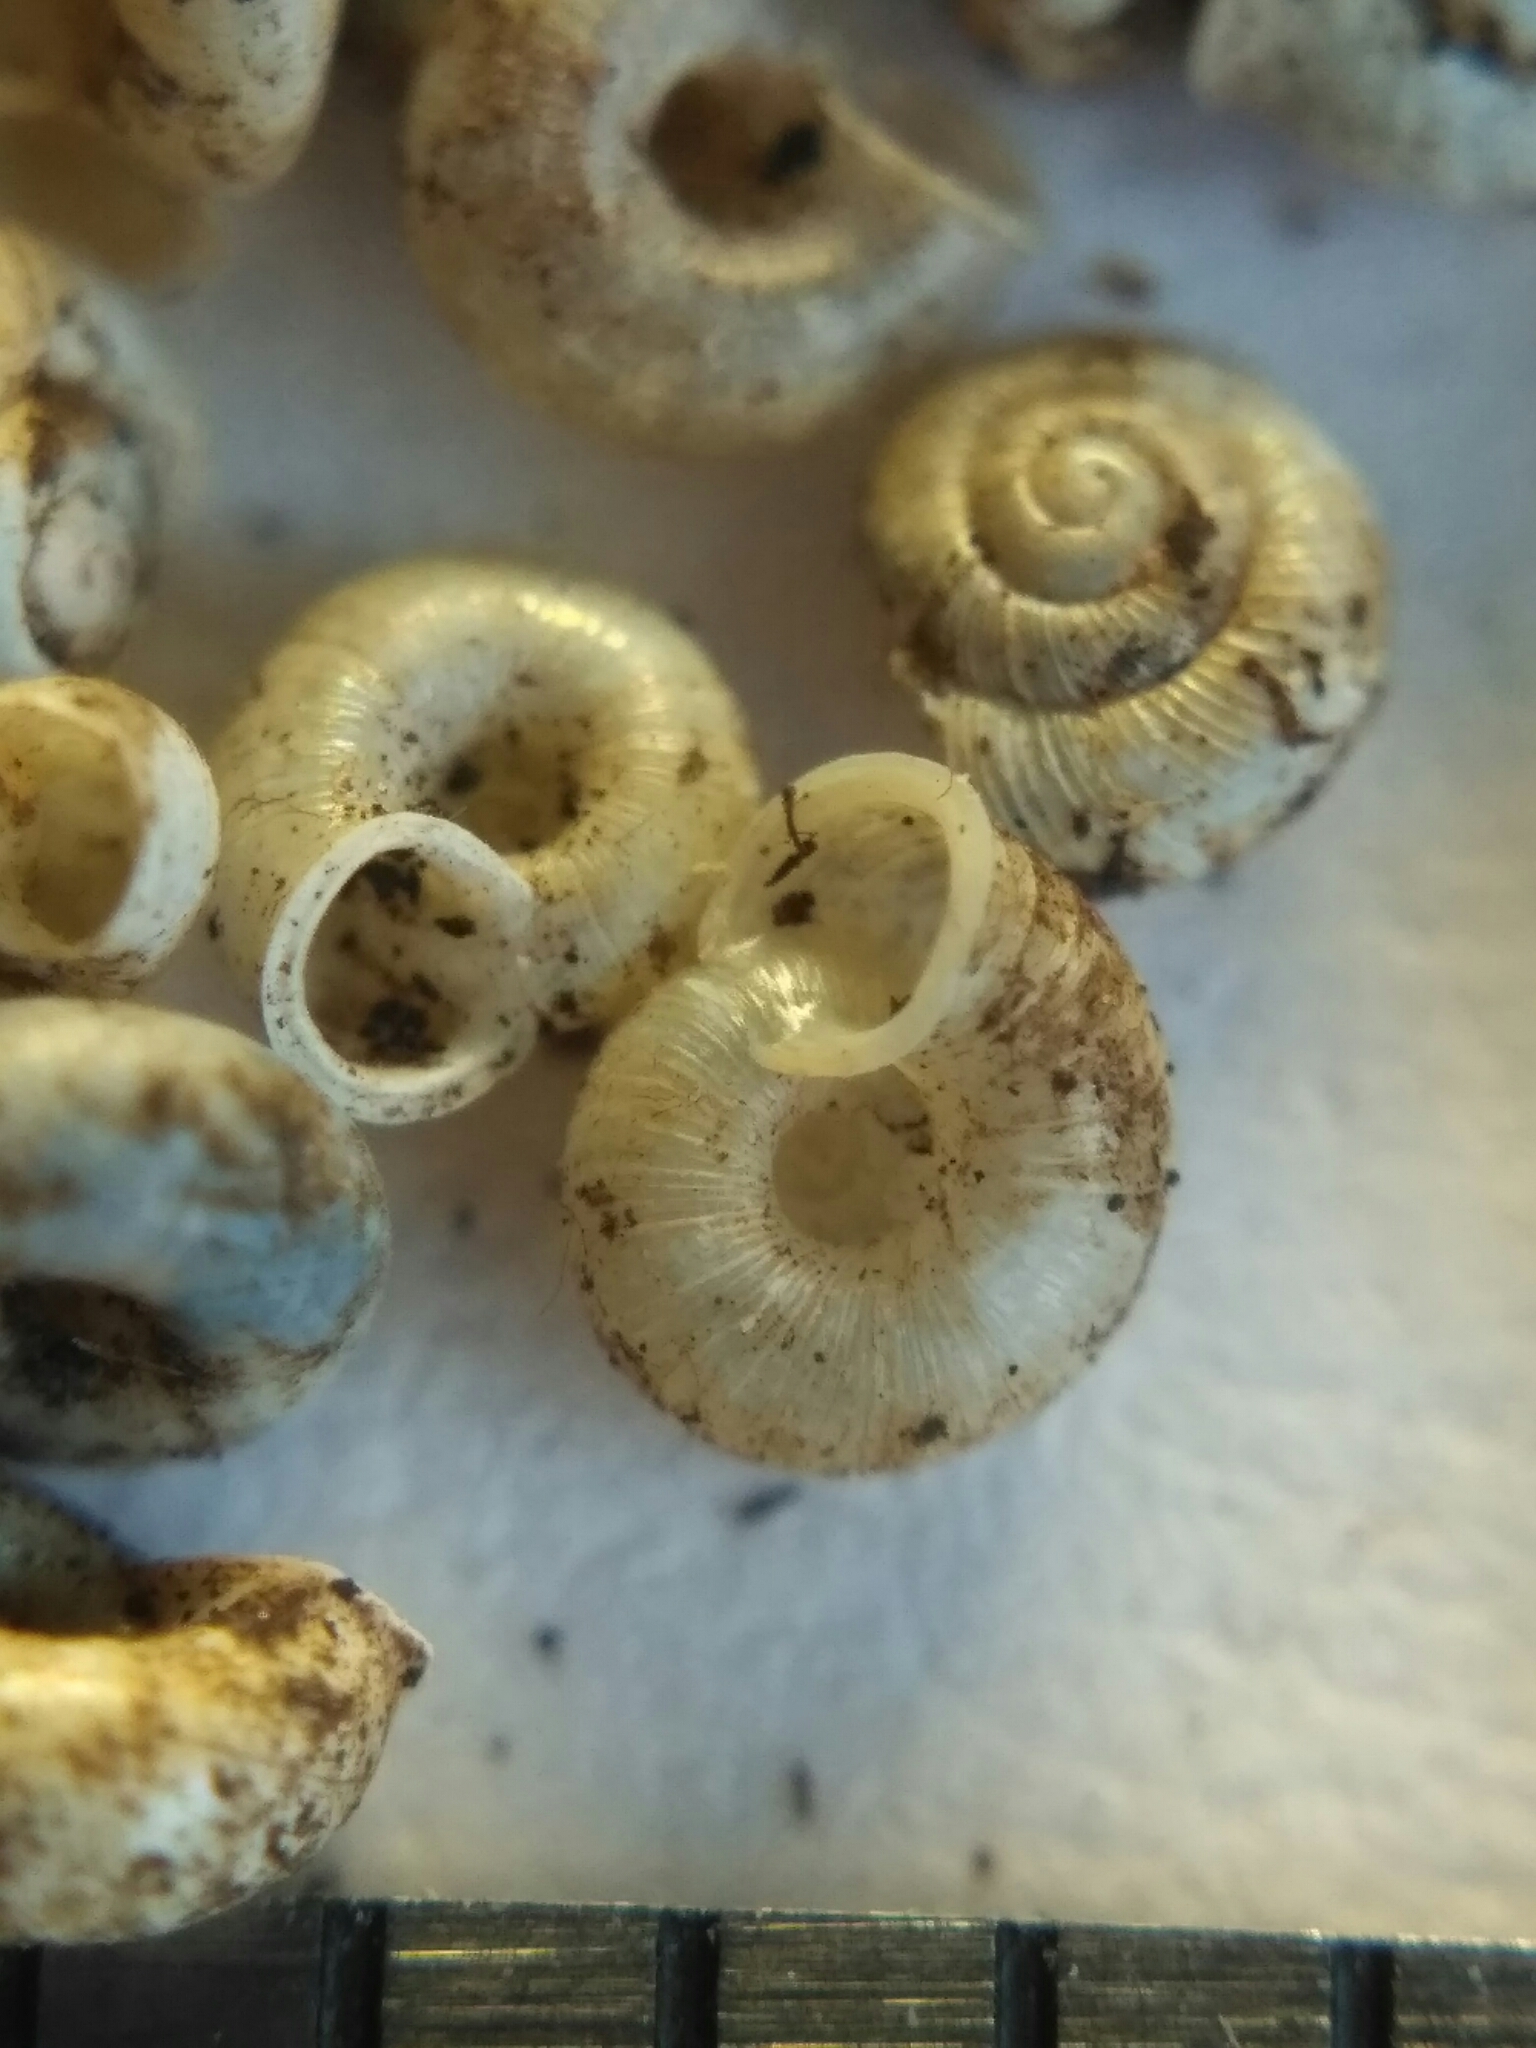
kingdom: Animalia
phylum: Mollusca
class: Gastropoda
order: Stylommatophora
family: Valloniidae
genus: Vallonia
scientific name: Vallonia enniensis
